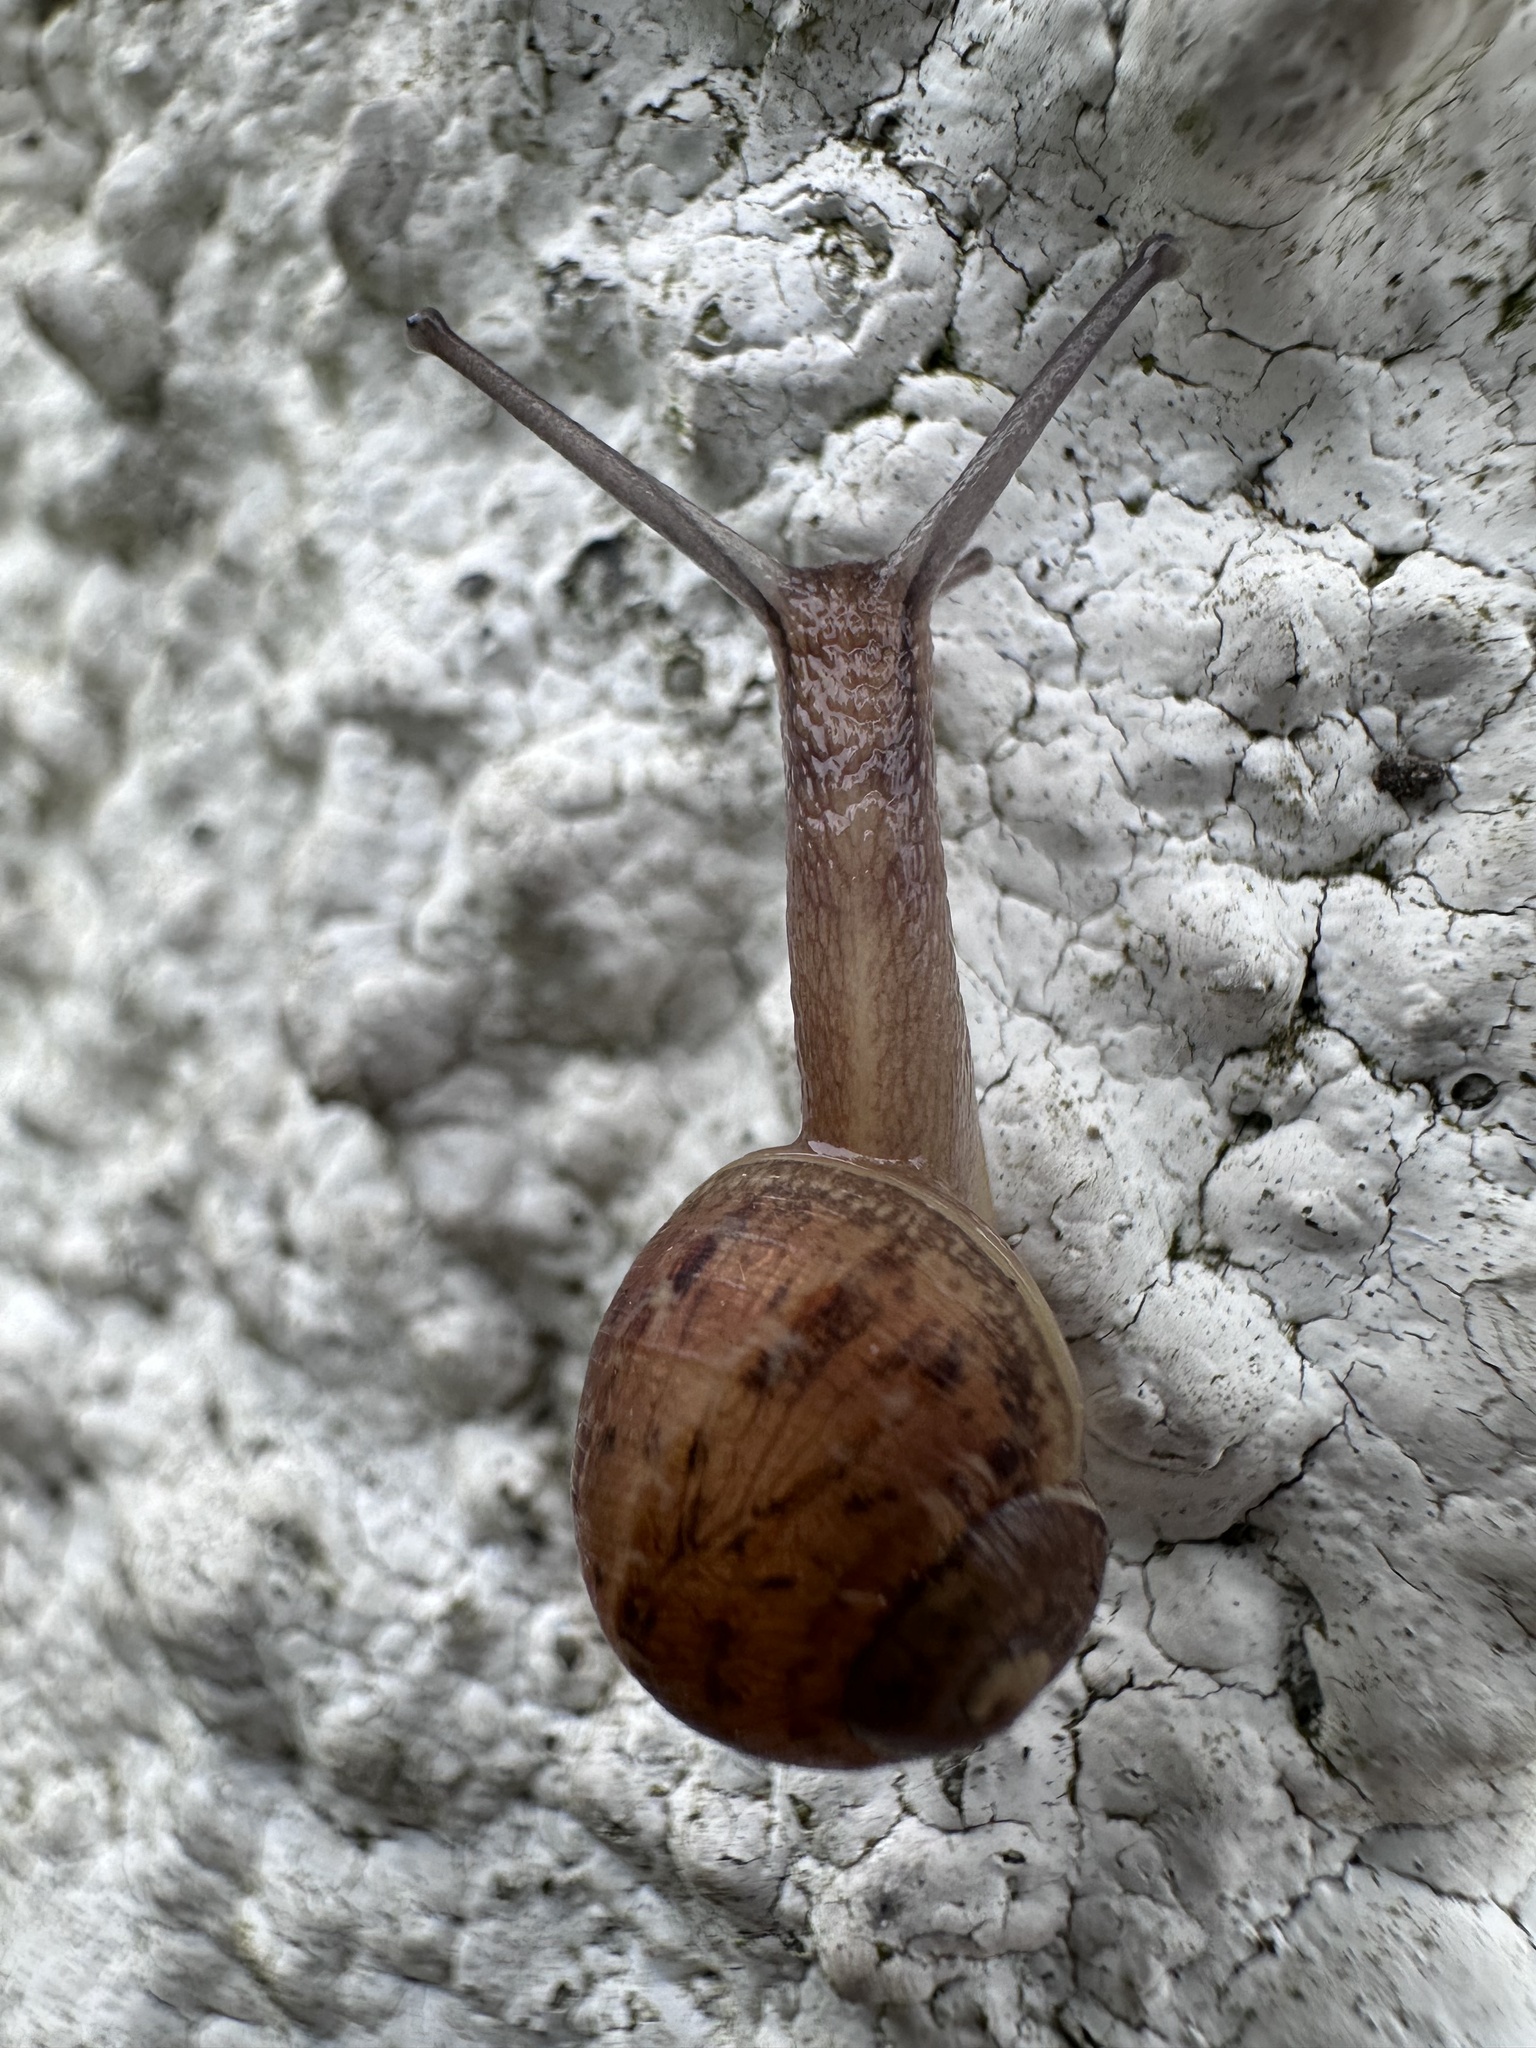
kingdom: Animalia
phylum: Mollusca
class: Gastropoda
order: Stylommatophora
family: Helicidae
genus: Cornu
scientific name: Cornu aspersum
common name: Brown garden snail
